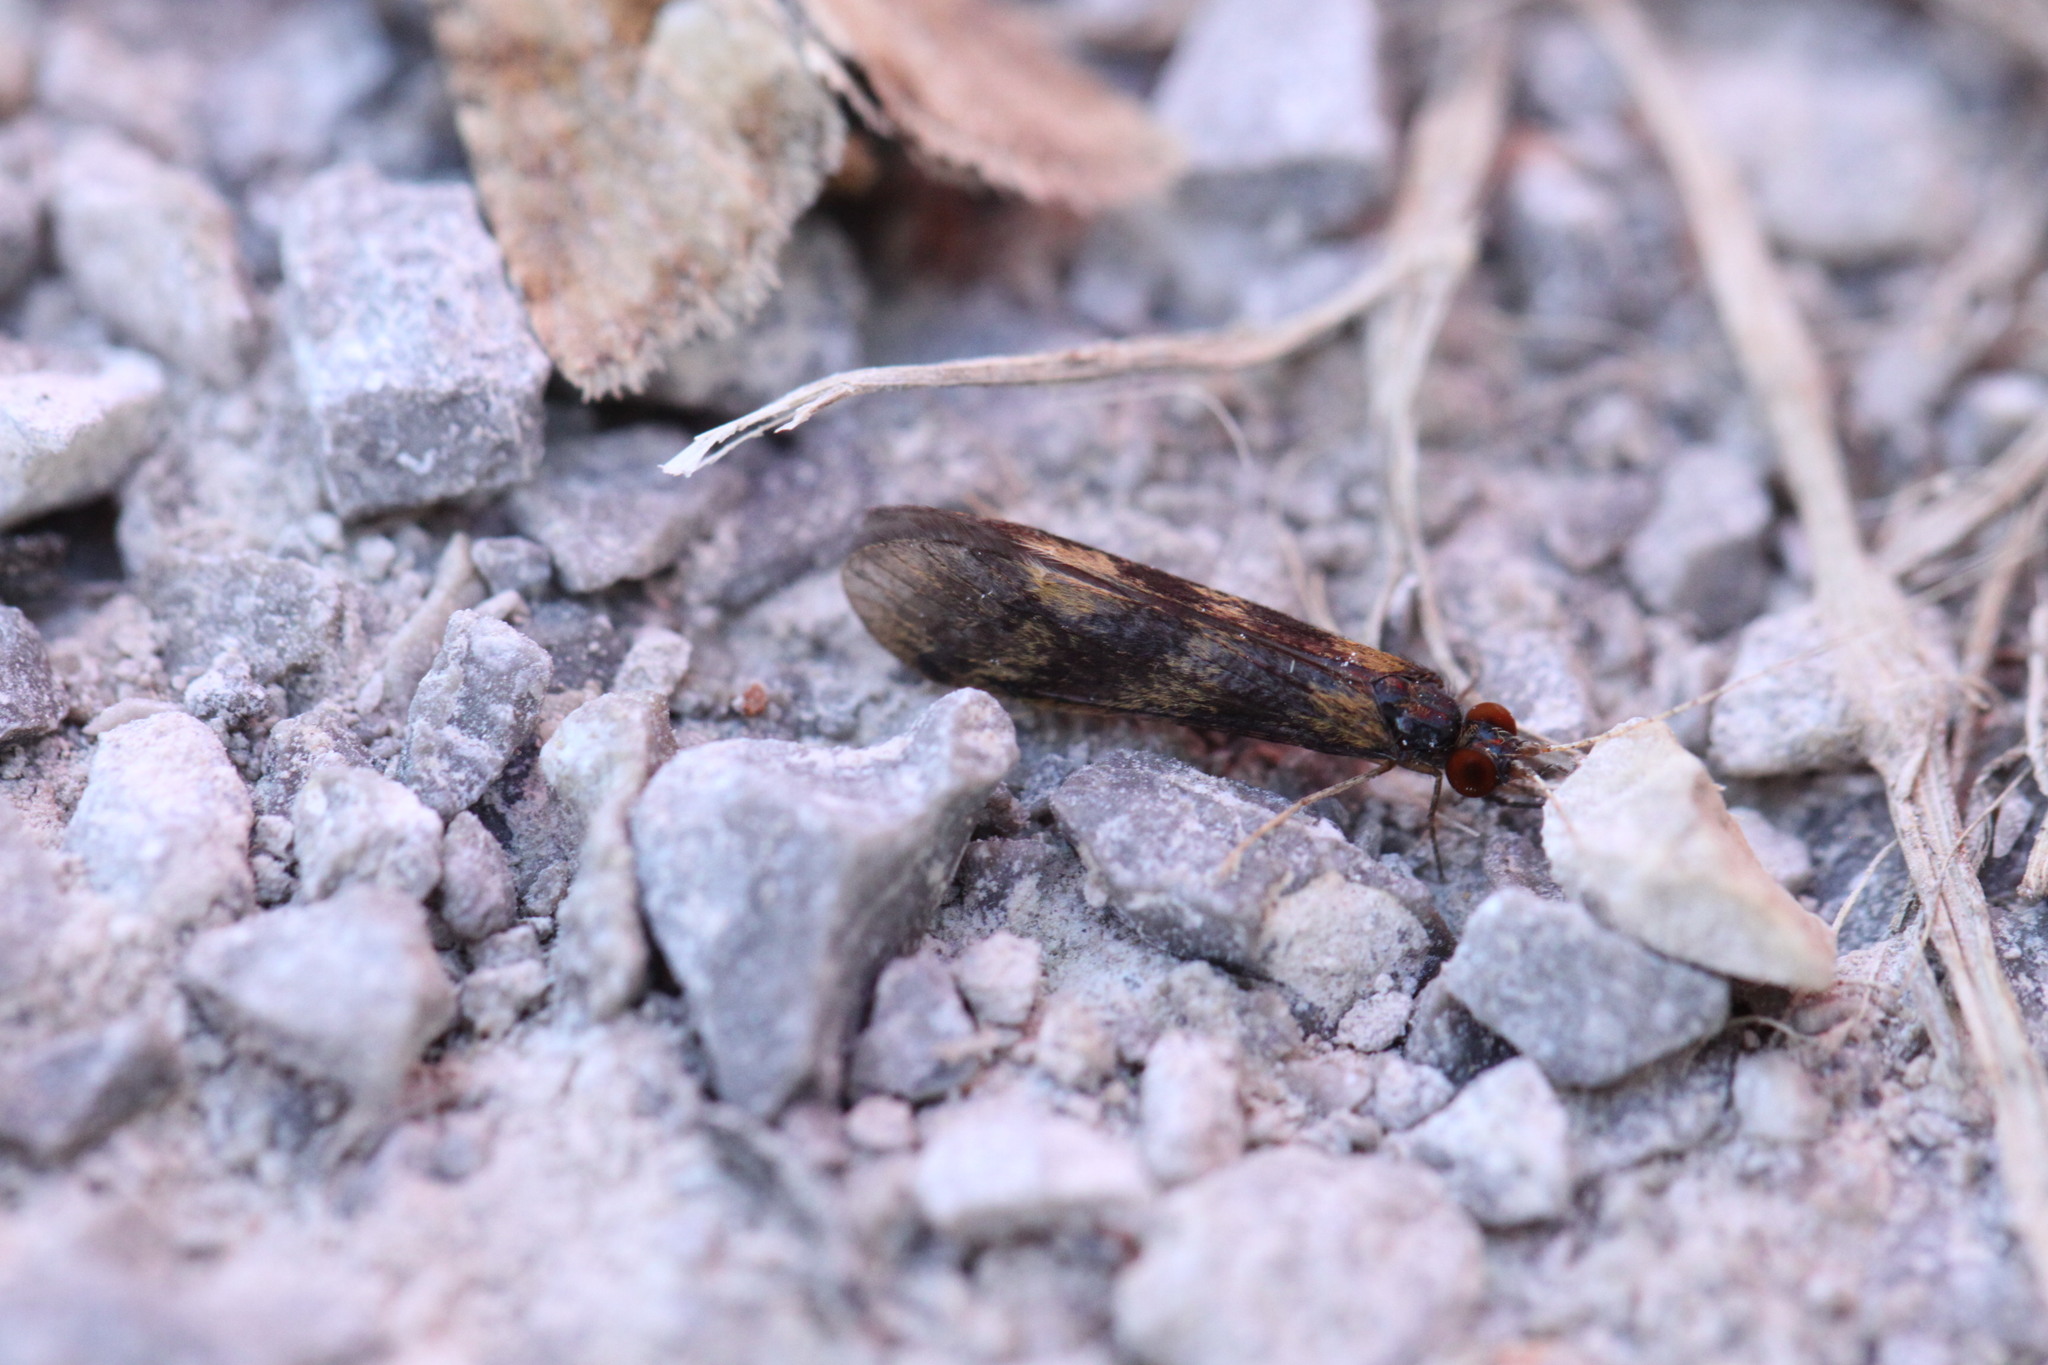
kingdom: Animalia
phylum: Arthropoda
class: Insecta
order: Trichoptera
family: Leptoceridae
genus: Mystacides
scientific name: Mystacides longicornis
